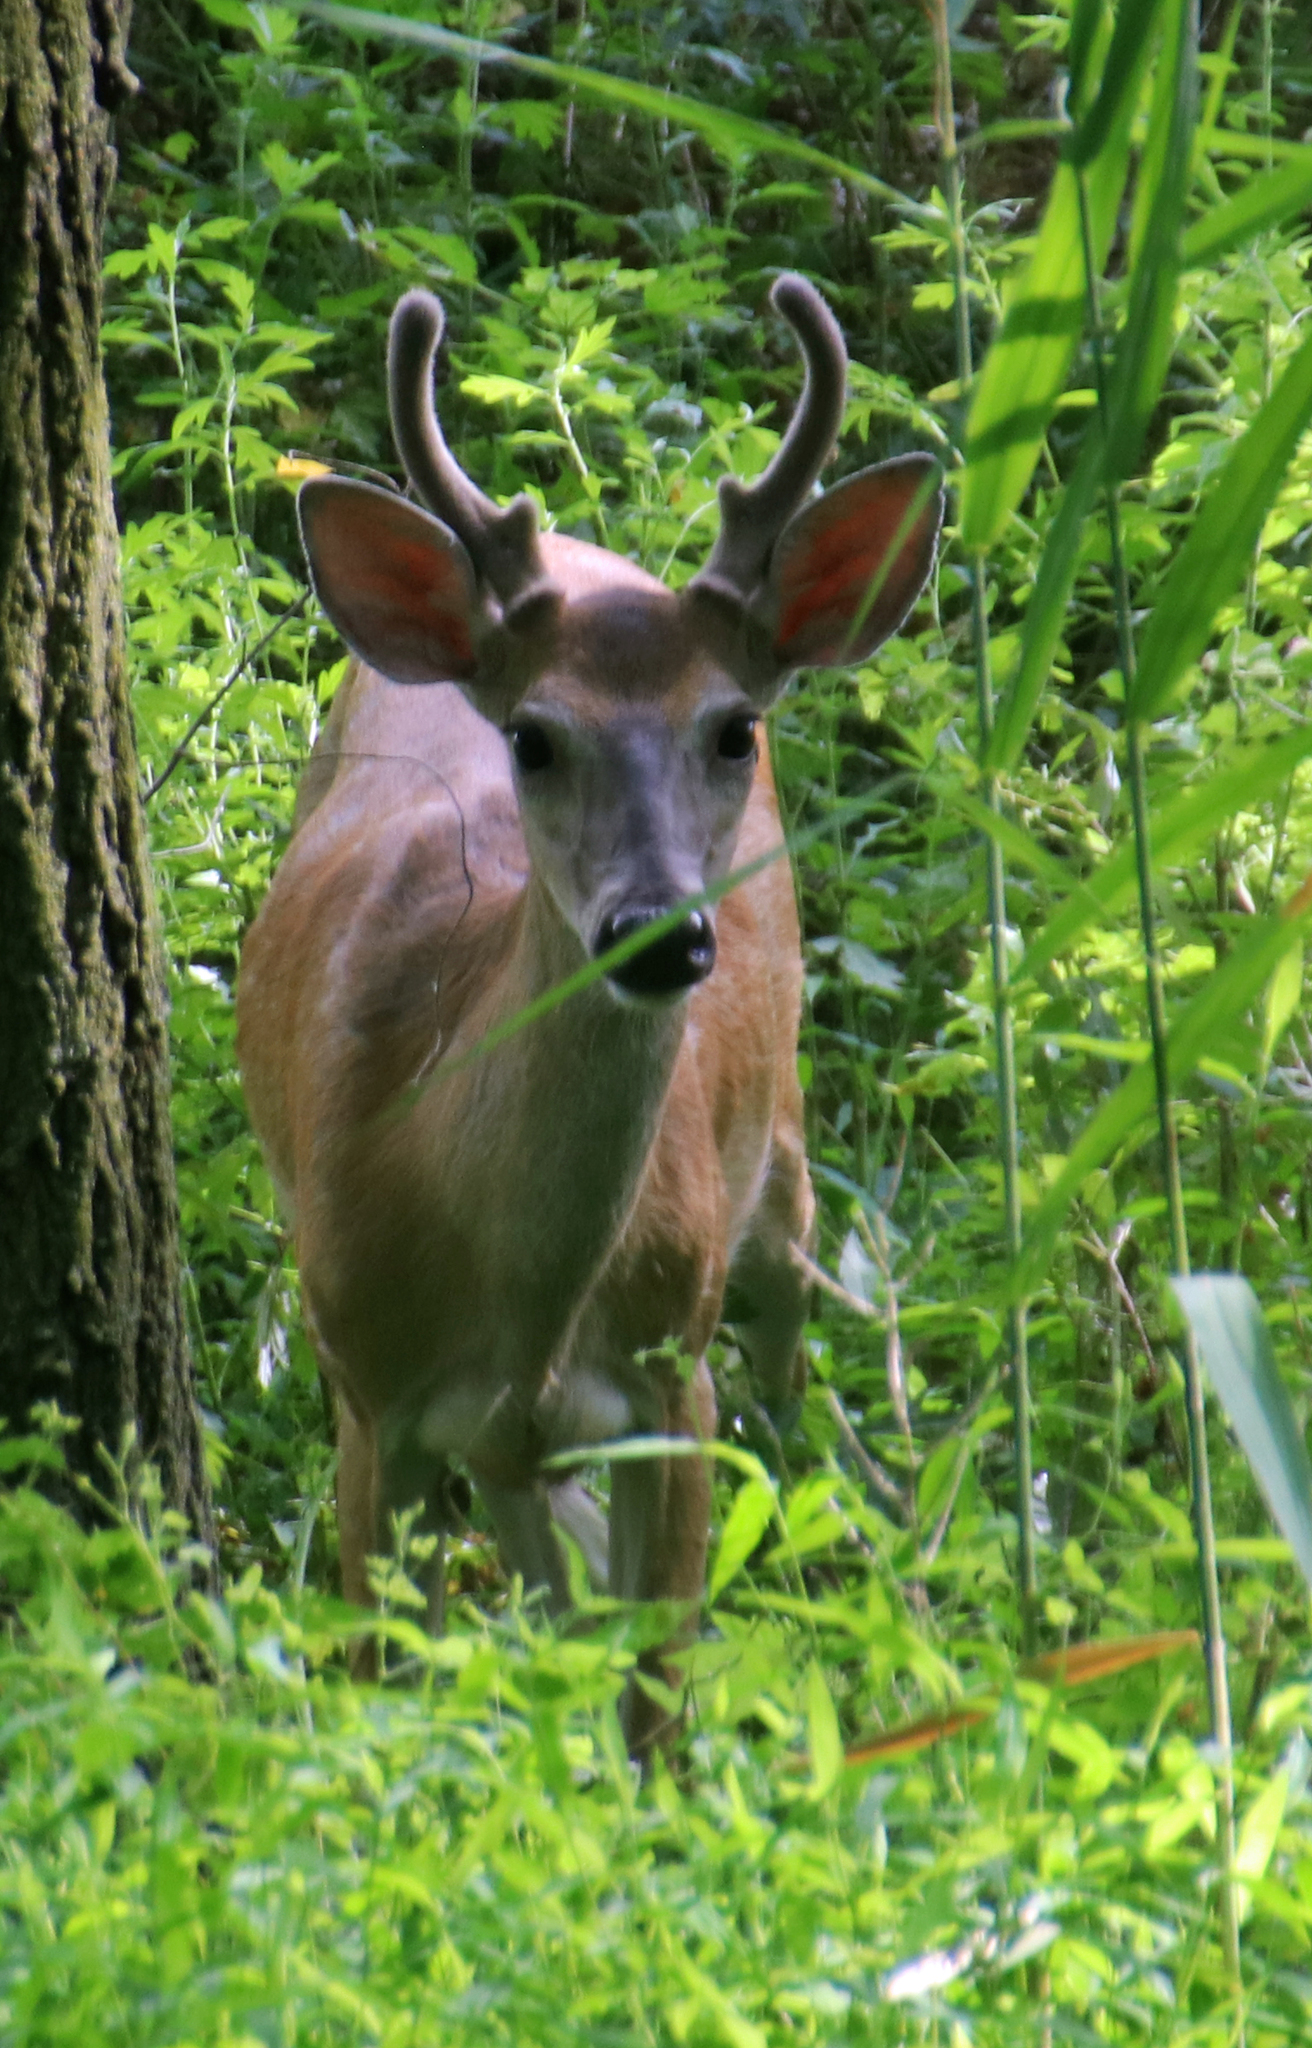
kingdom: Animalia
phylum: Chordata
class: Mammalia
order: Artiodactyla
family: Cervidae
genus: Odocoileus
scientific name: Odocoileus virginianus
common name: White-tailed deer
